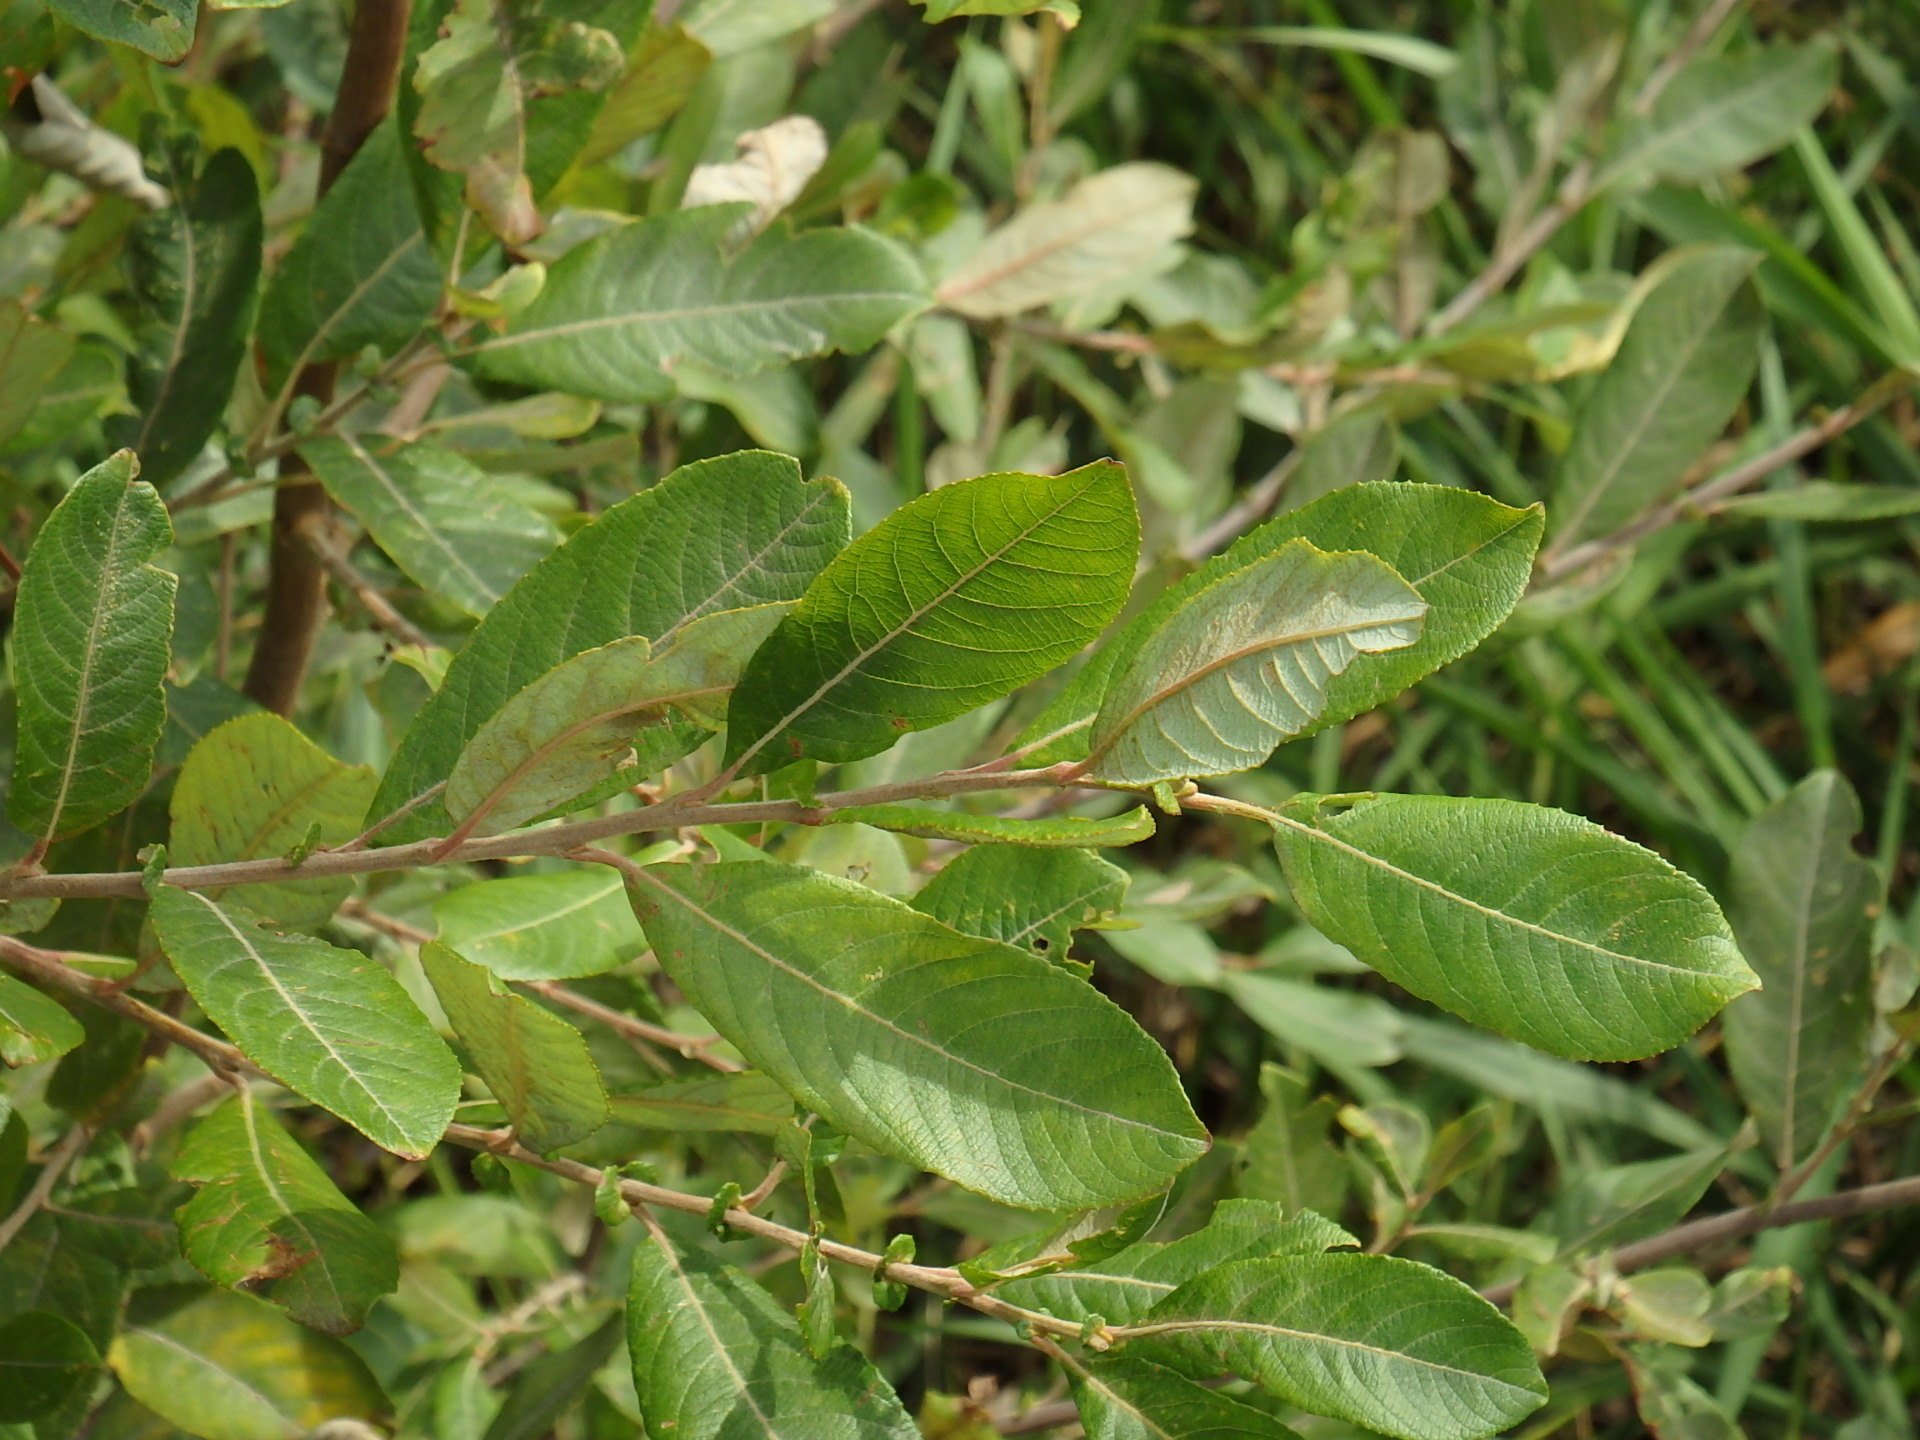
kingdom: Plantae
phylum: Tracheophyta
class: Magnoliopsida
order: Malpighiales
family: Salicaceae
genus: Salix
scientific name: Salix atrocinerea
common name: Rusty willow
